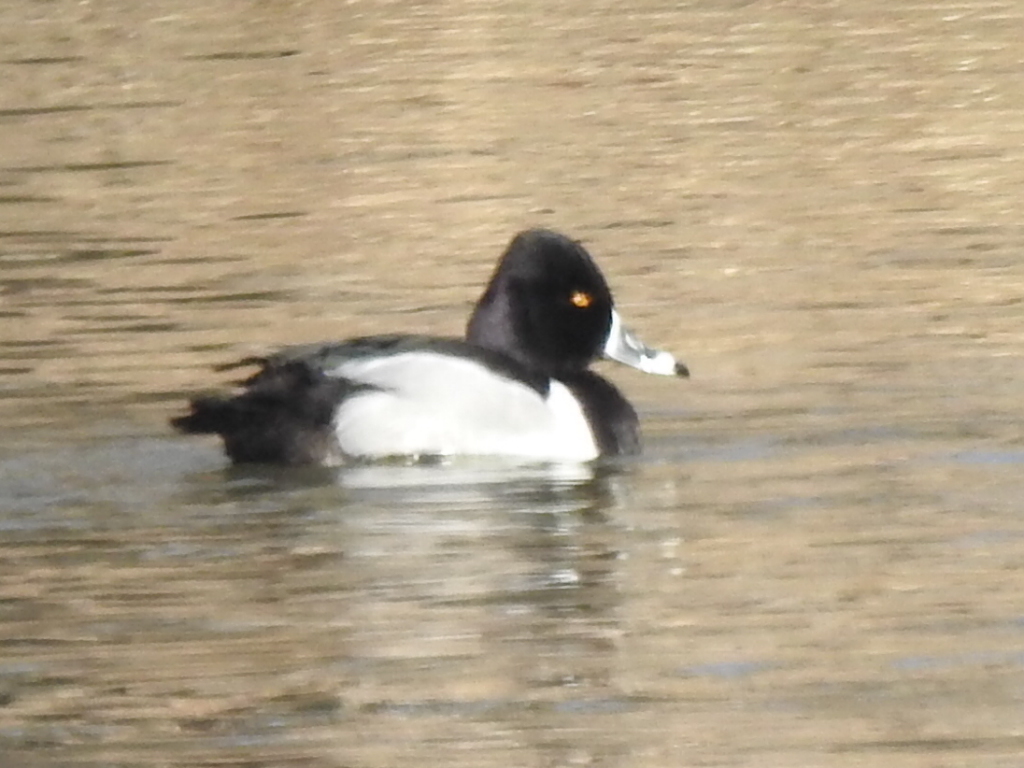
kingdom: Animalia
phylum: Chordata
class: Aves
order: Anseriformes
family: Anatidae
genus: Aythya
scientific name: Aythya collaris
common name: Ring-necked duck
